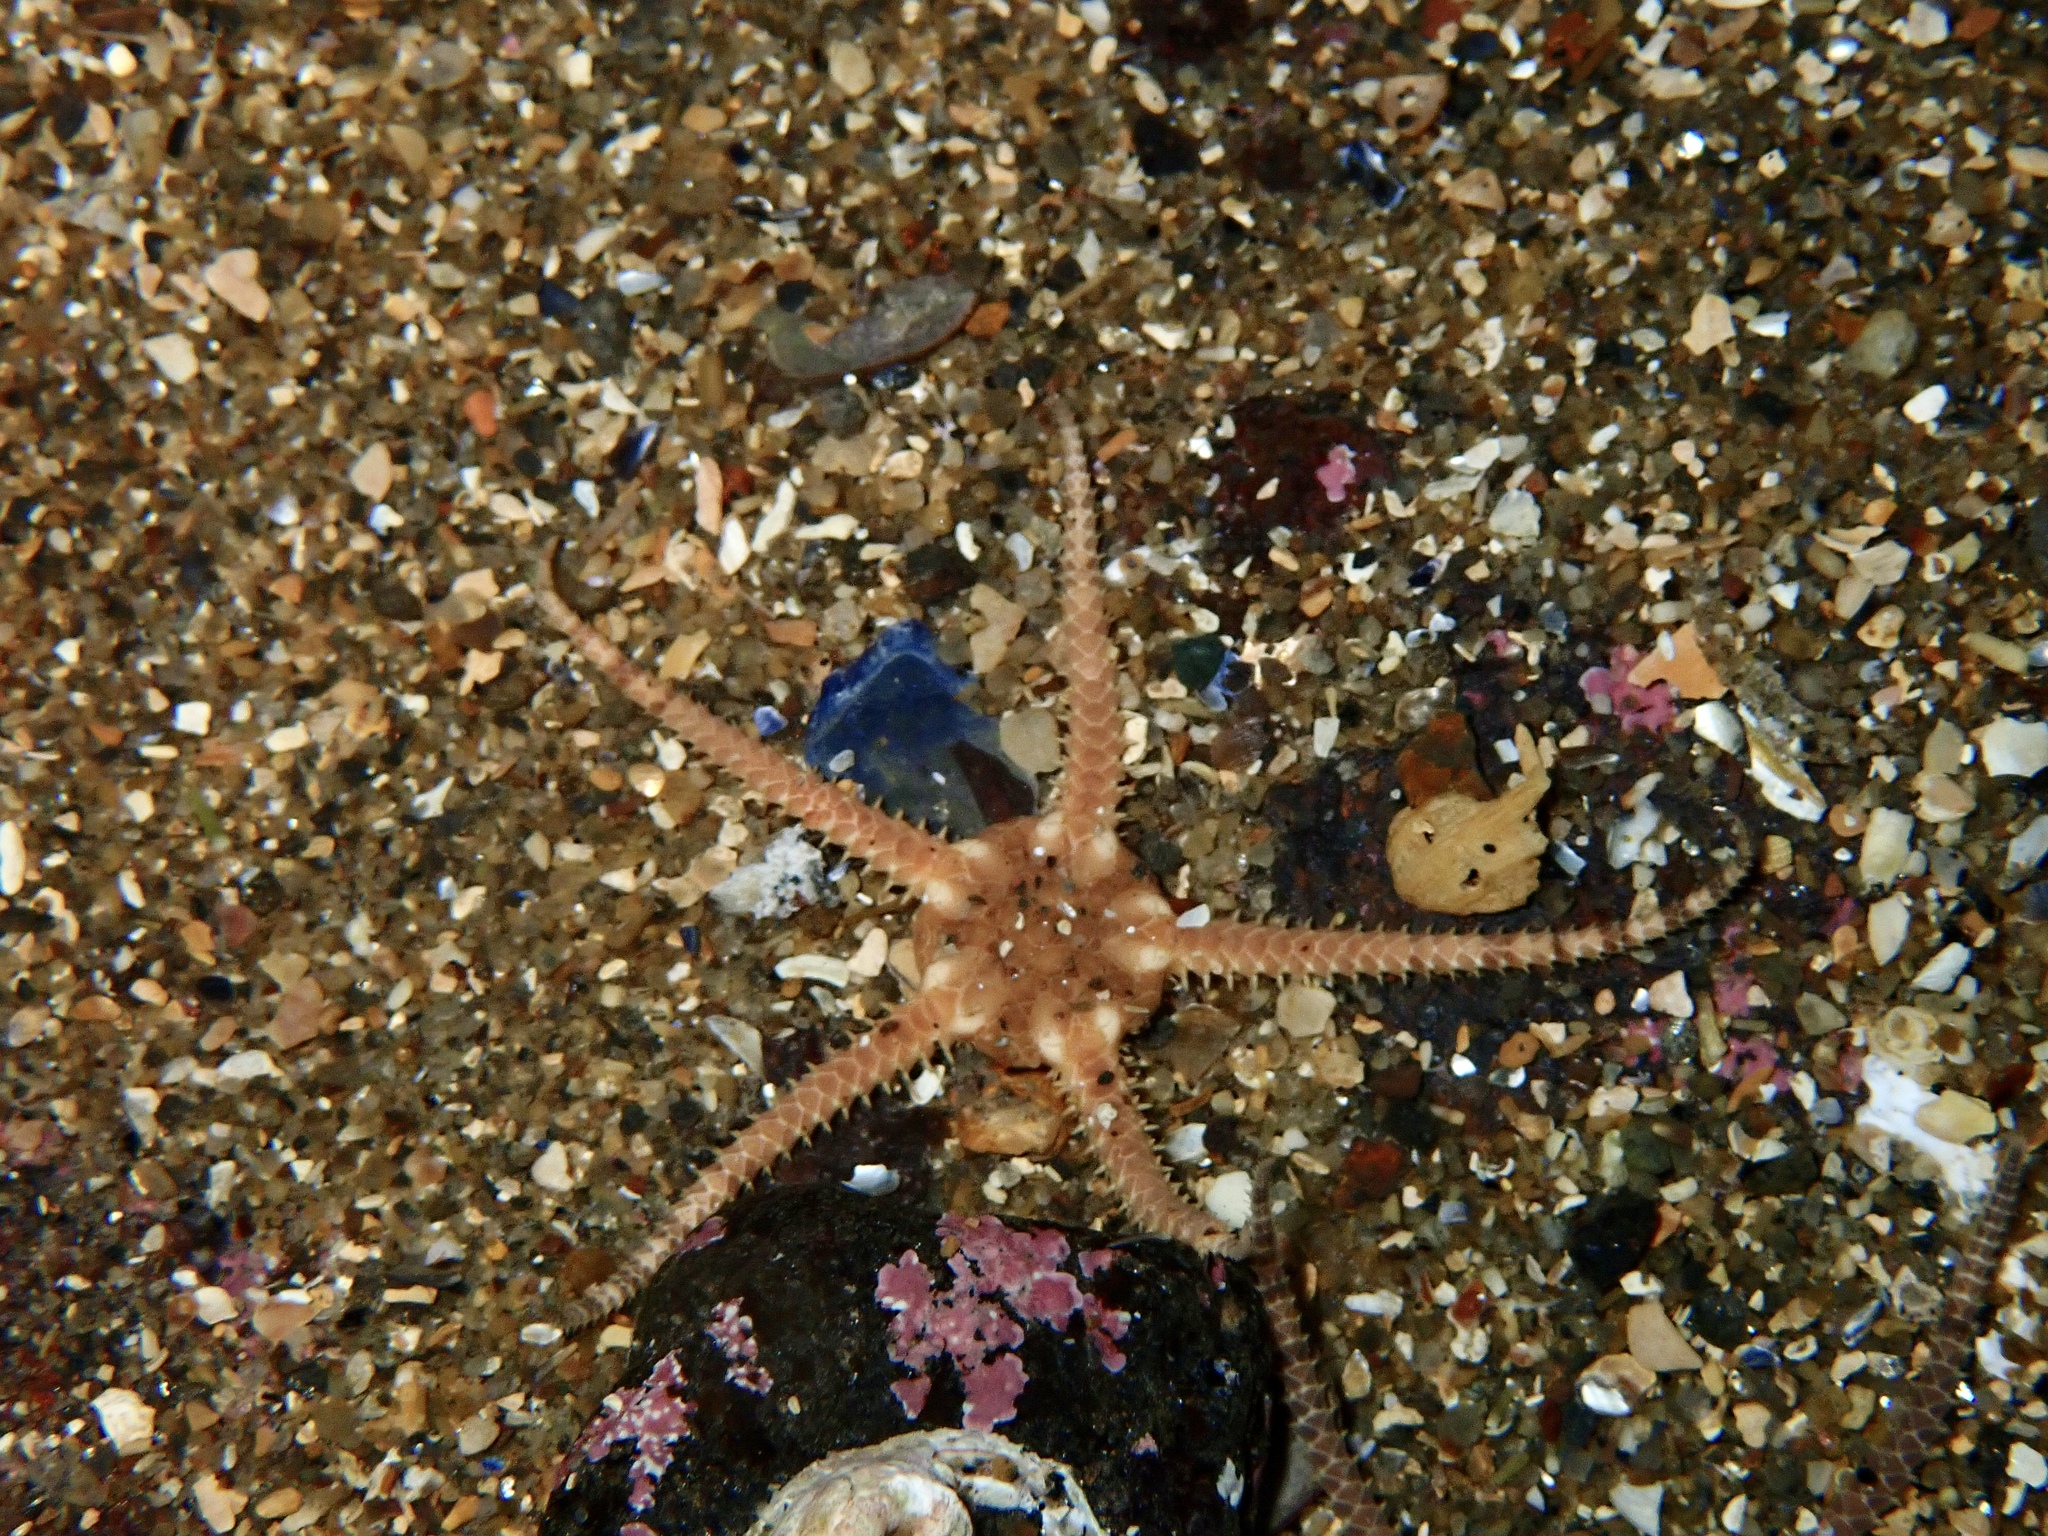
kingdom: Animalia
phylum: Echinodermata
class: Ophiuroidea
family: Ophiuridae
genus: Ophiura
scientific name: Ophiura albida
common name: Serpent's table brittlestar
